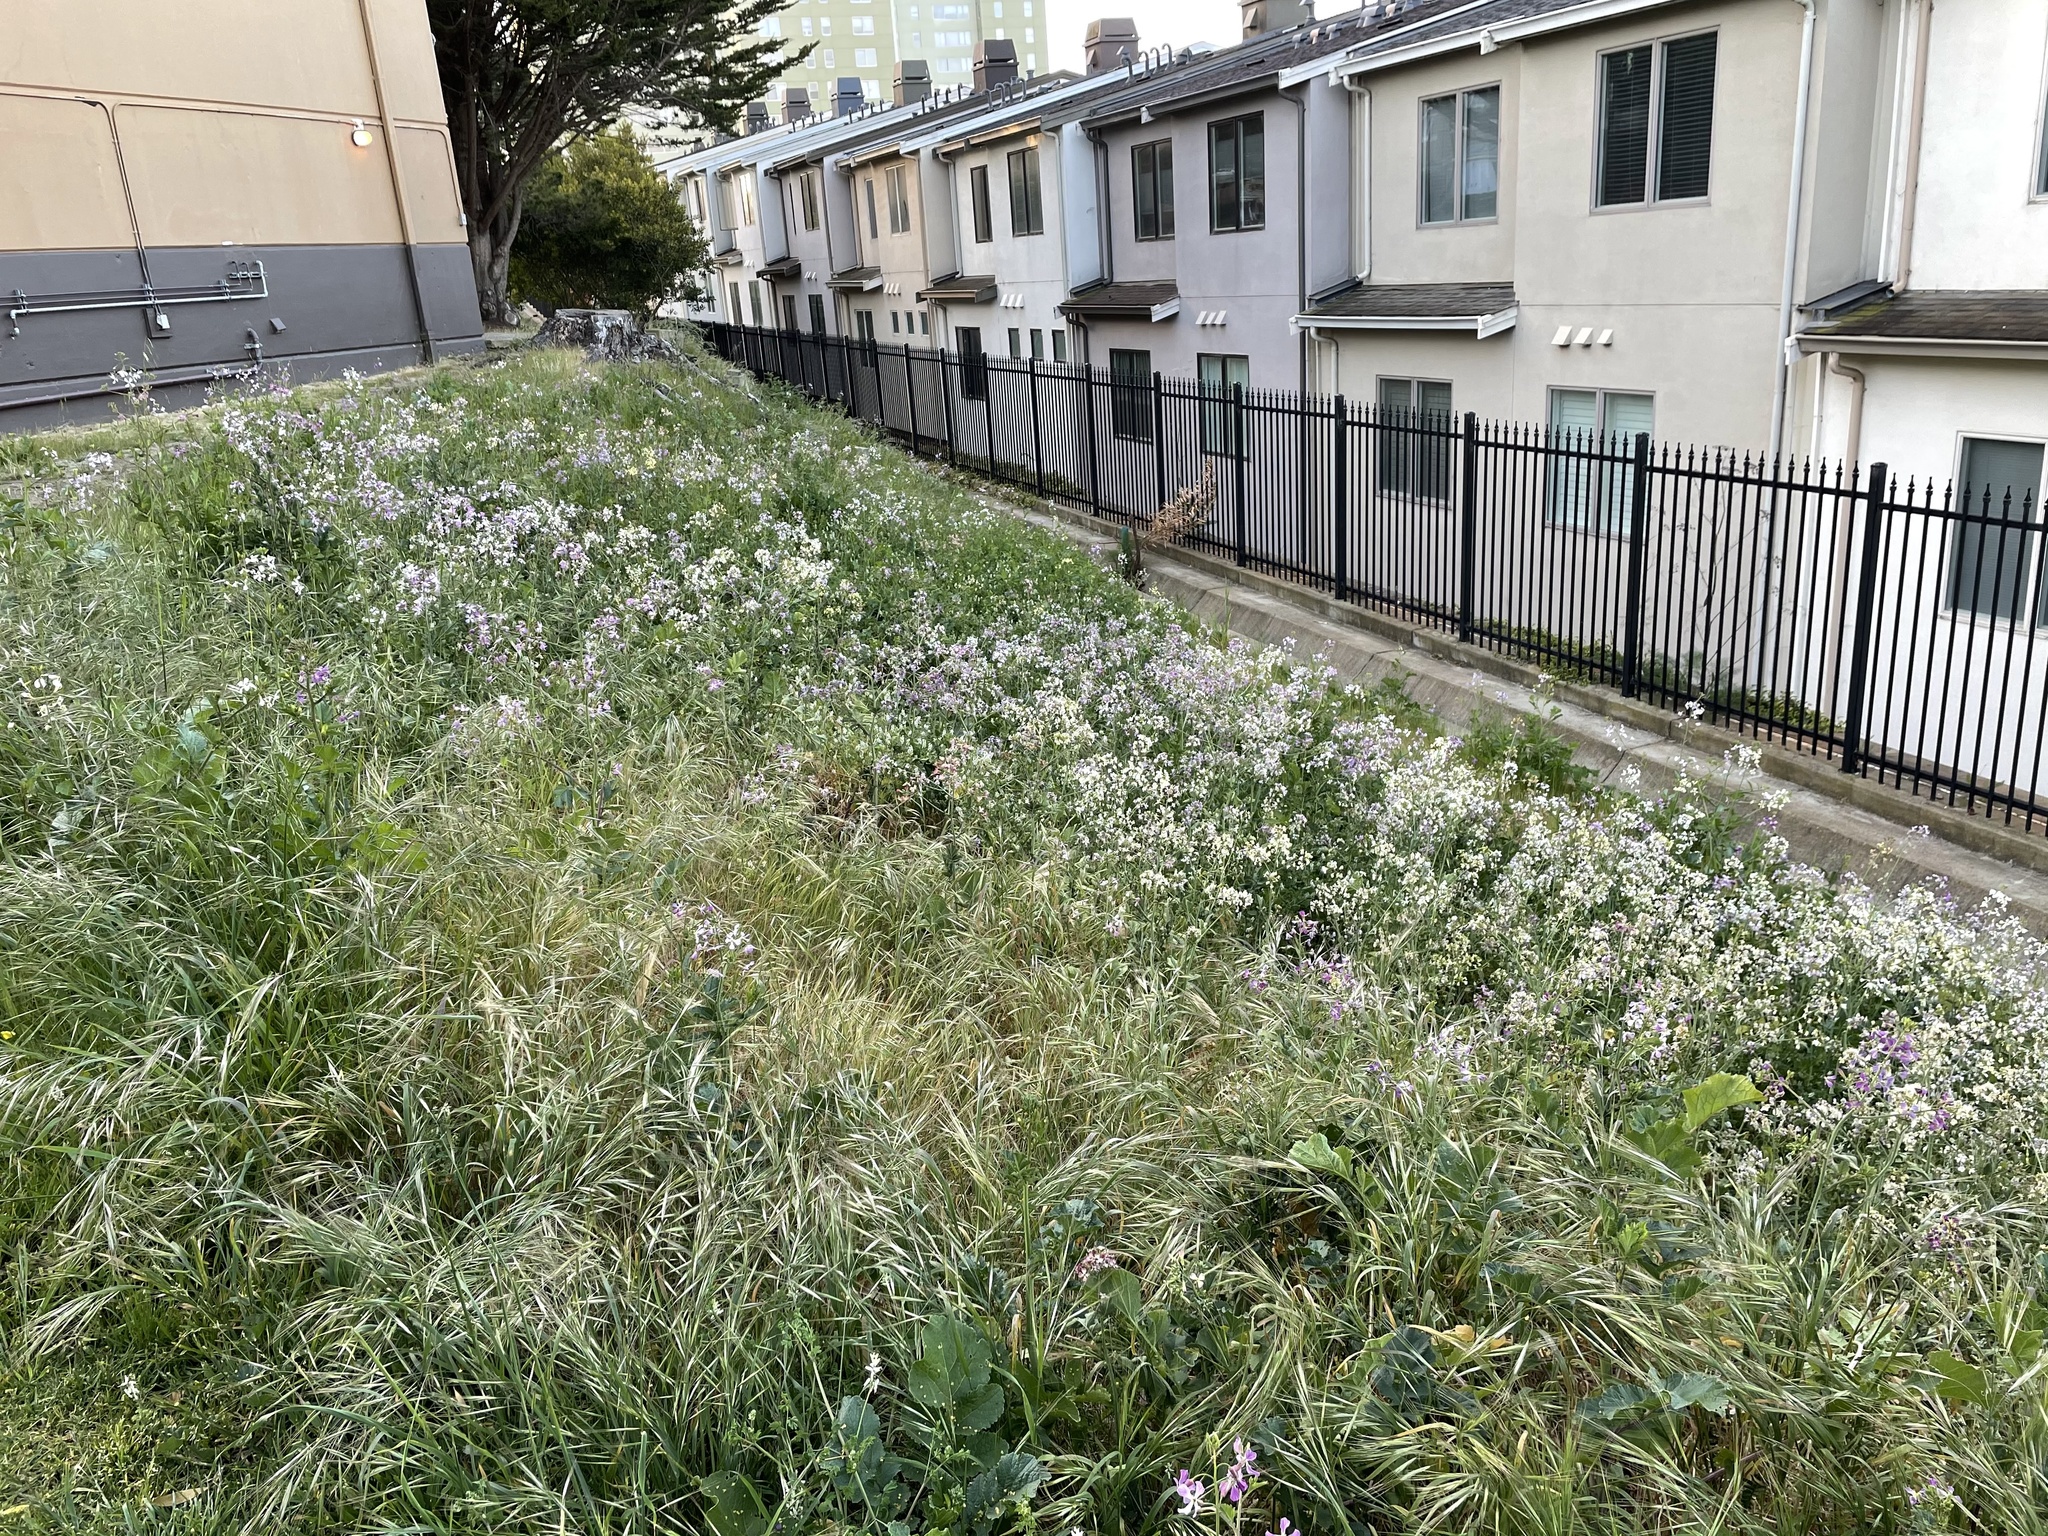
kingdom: Plantae
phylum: Tracheophyta
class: Magnoliopsida
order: Brassicales
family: Brassicaceae
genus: Raphanus
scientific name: Raphanus sativus
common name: Cultivated radish
